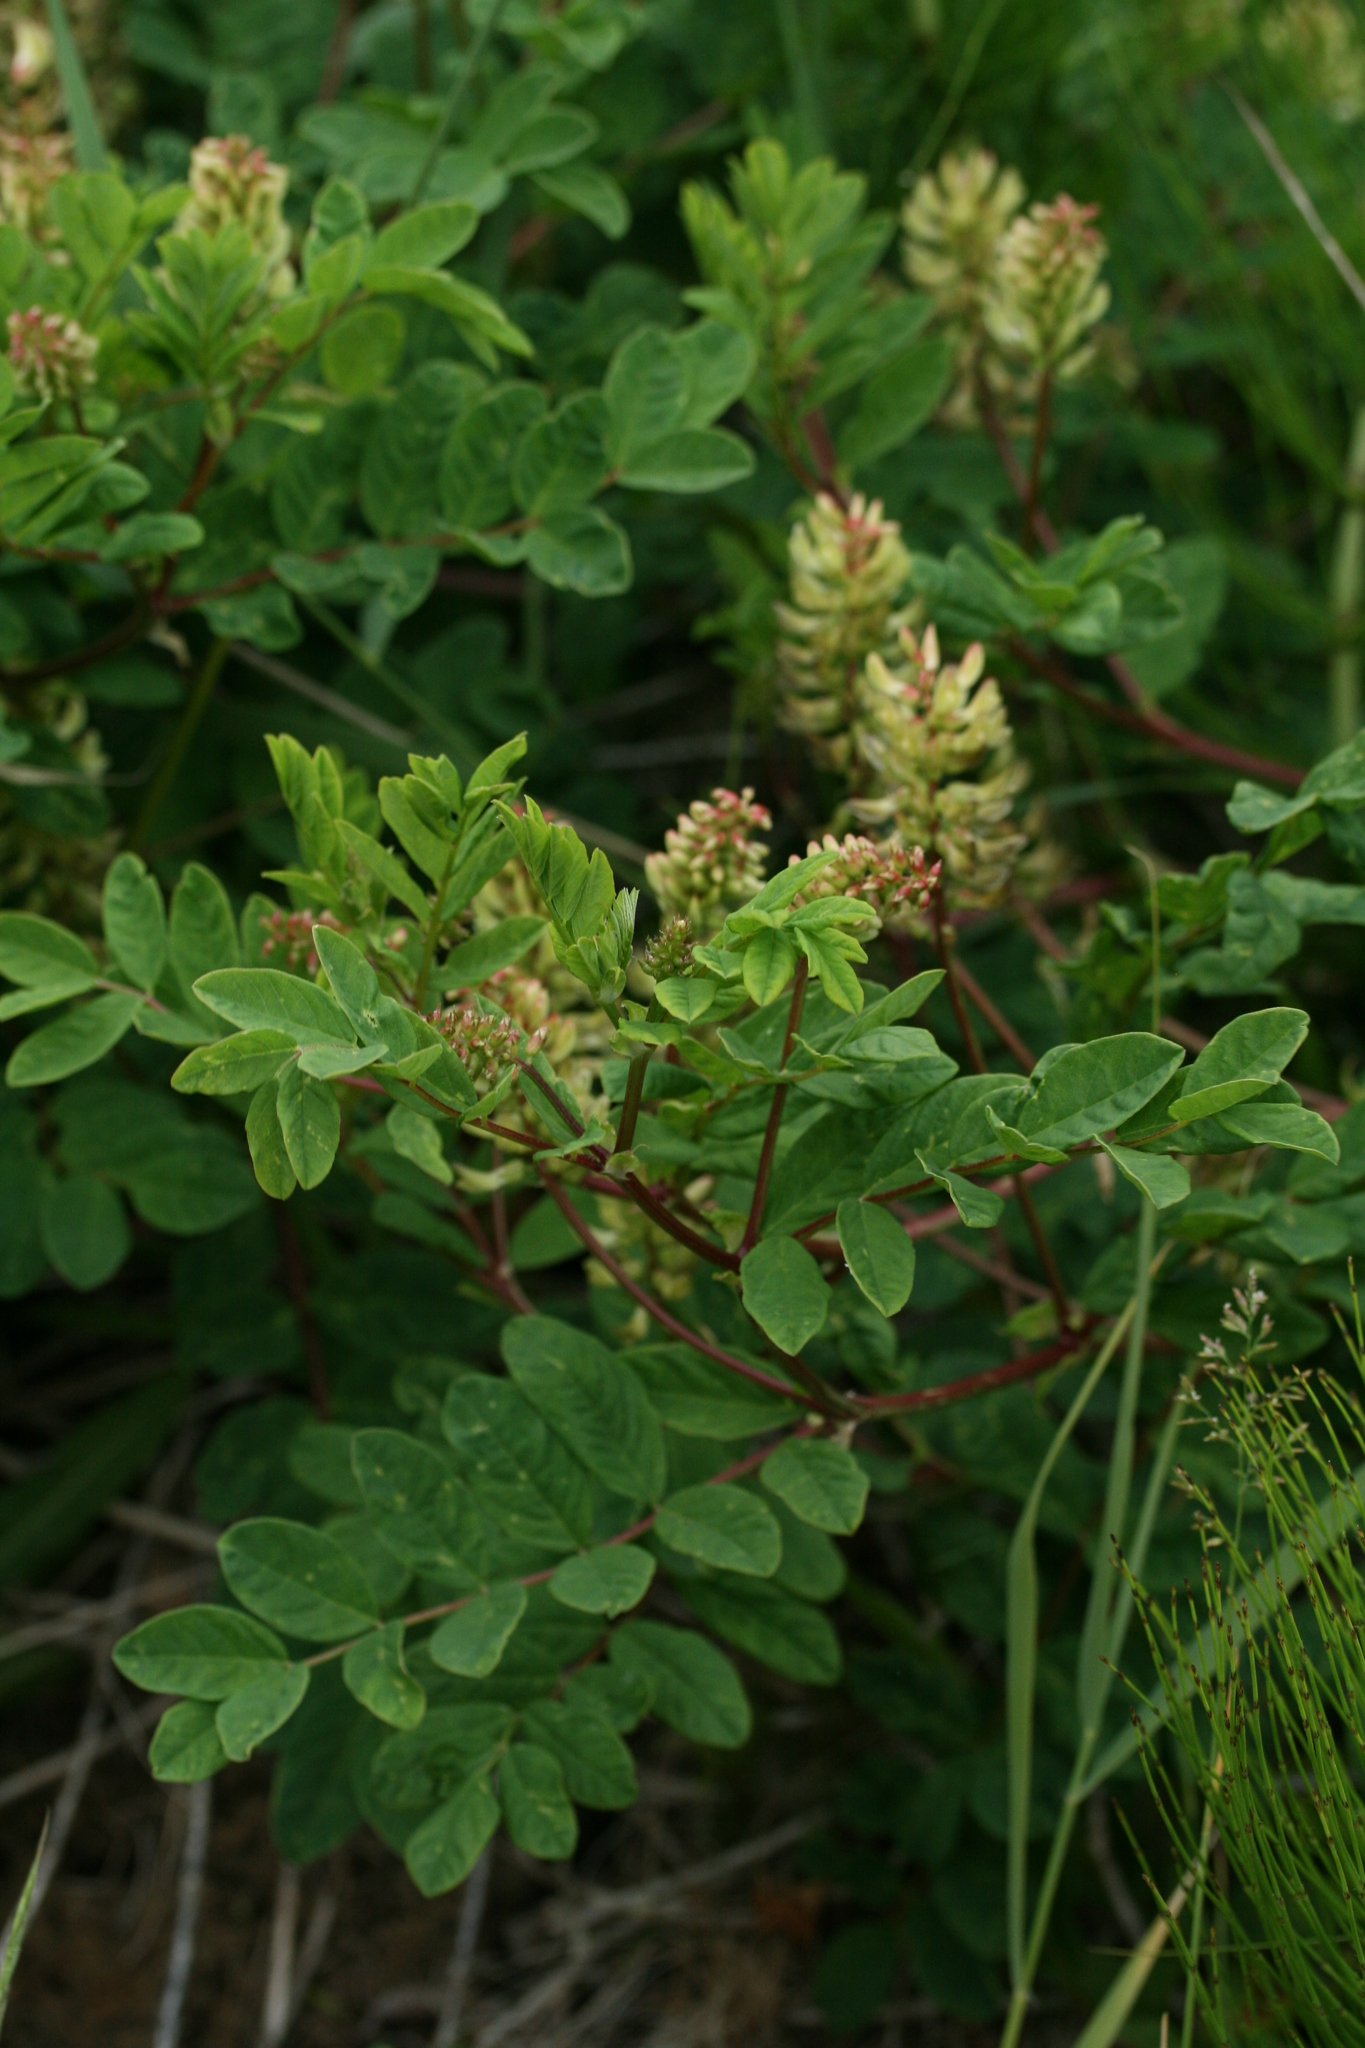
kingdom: Plantae
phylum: Tracheophyta
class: Magnoliopsida
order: Fabales
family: Fabaceae
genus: Astragalus
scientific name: Astragalus glycyphyllos
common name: Wild liquorice
